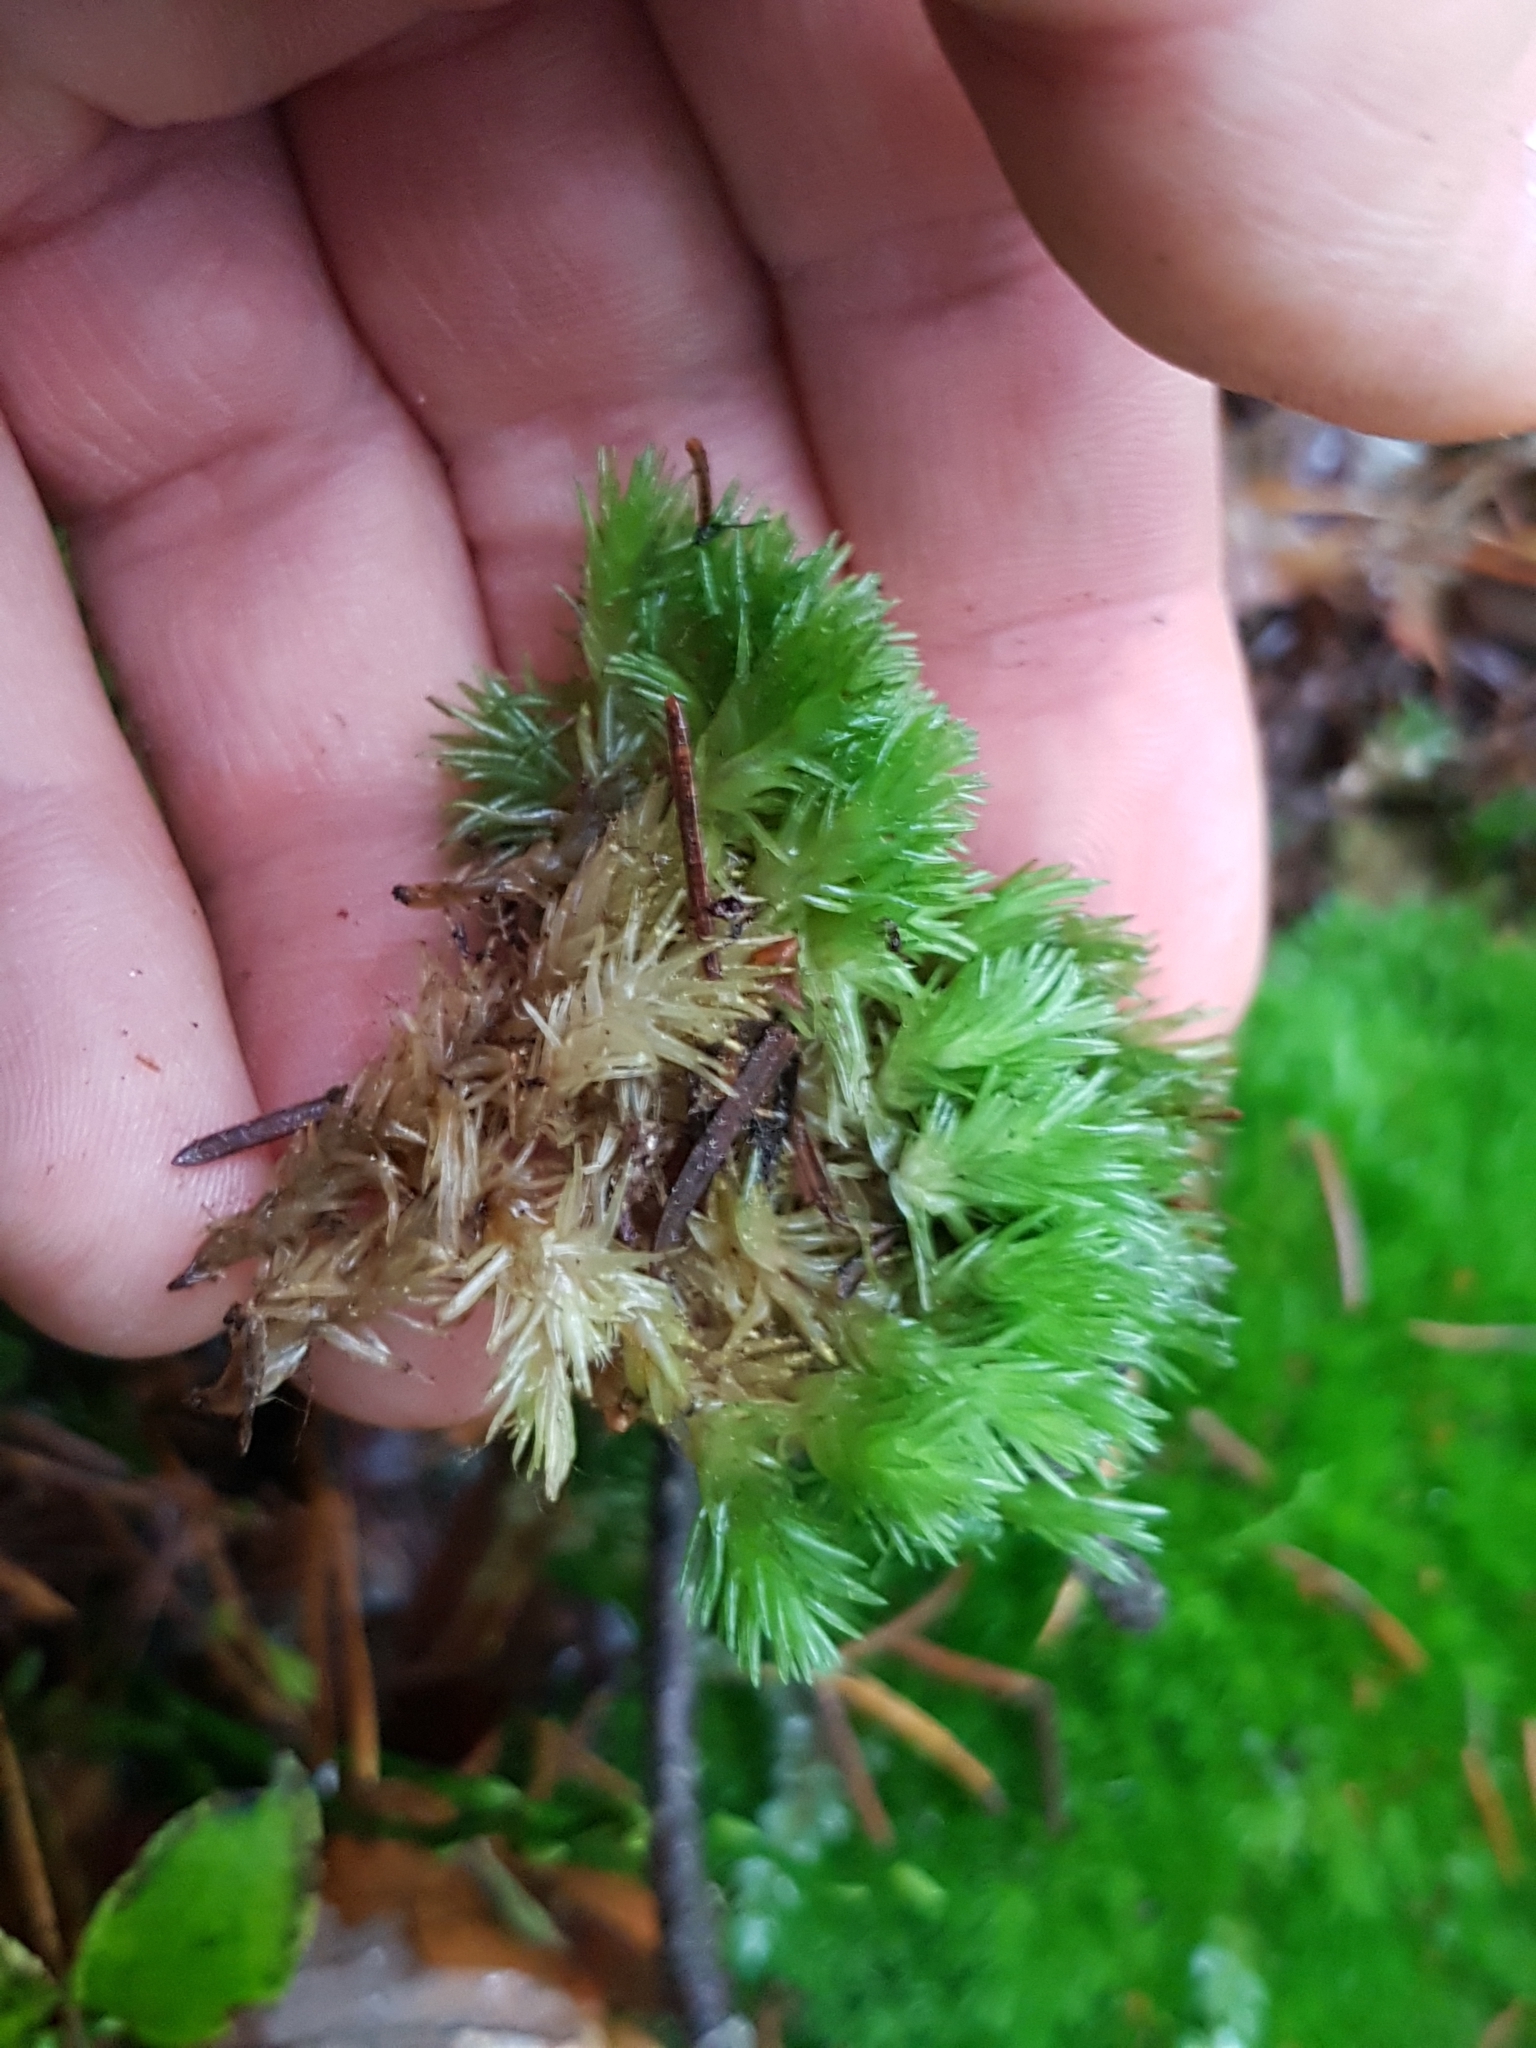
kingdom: Plantae
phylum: Bryophyta
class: Bryopsida
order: Dicranales
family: Leucobryaceae
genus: Leucobryum
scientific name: Leucobryum glaucum
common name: Large white-moss
